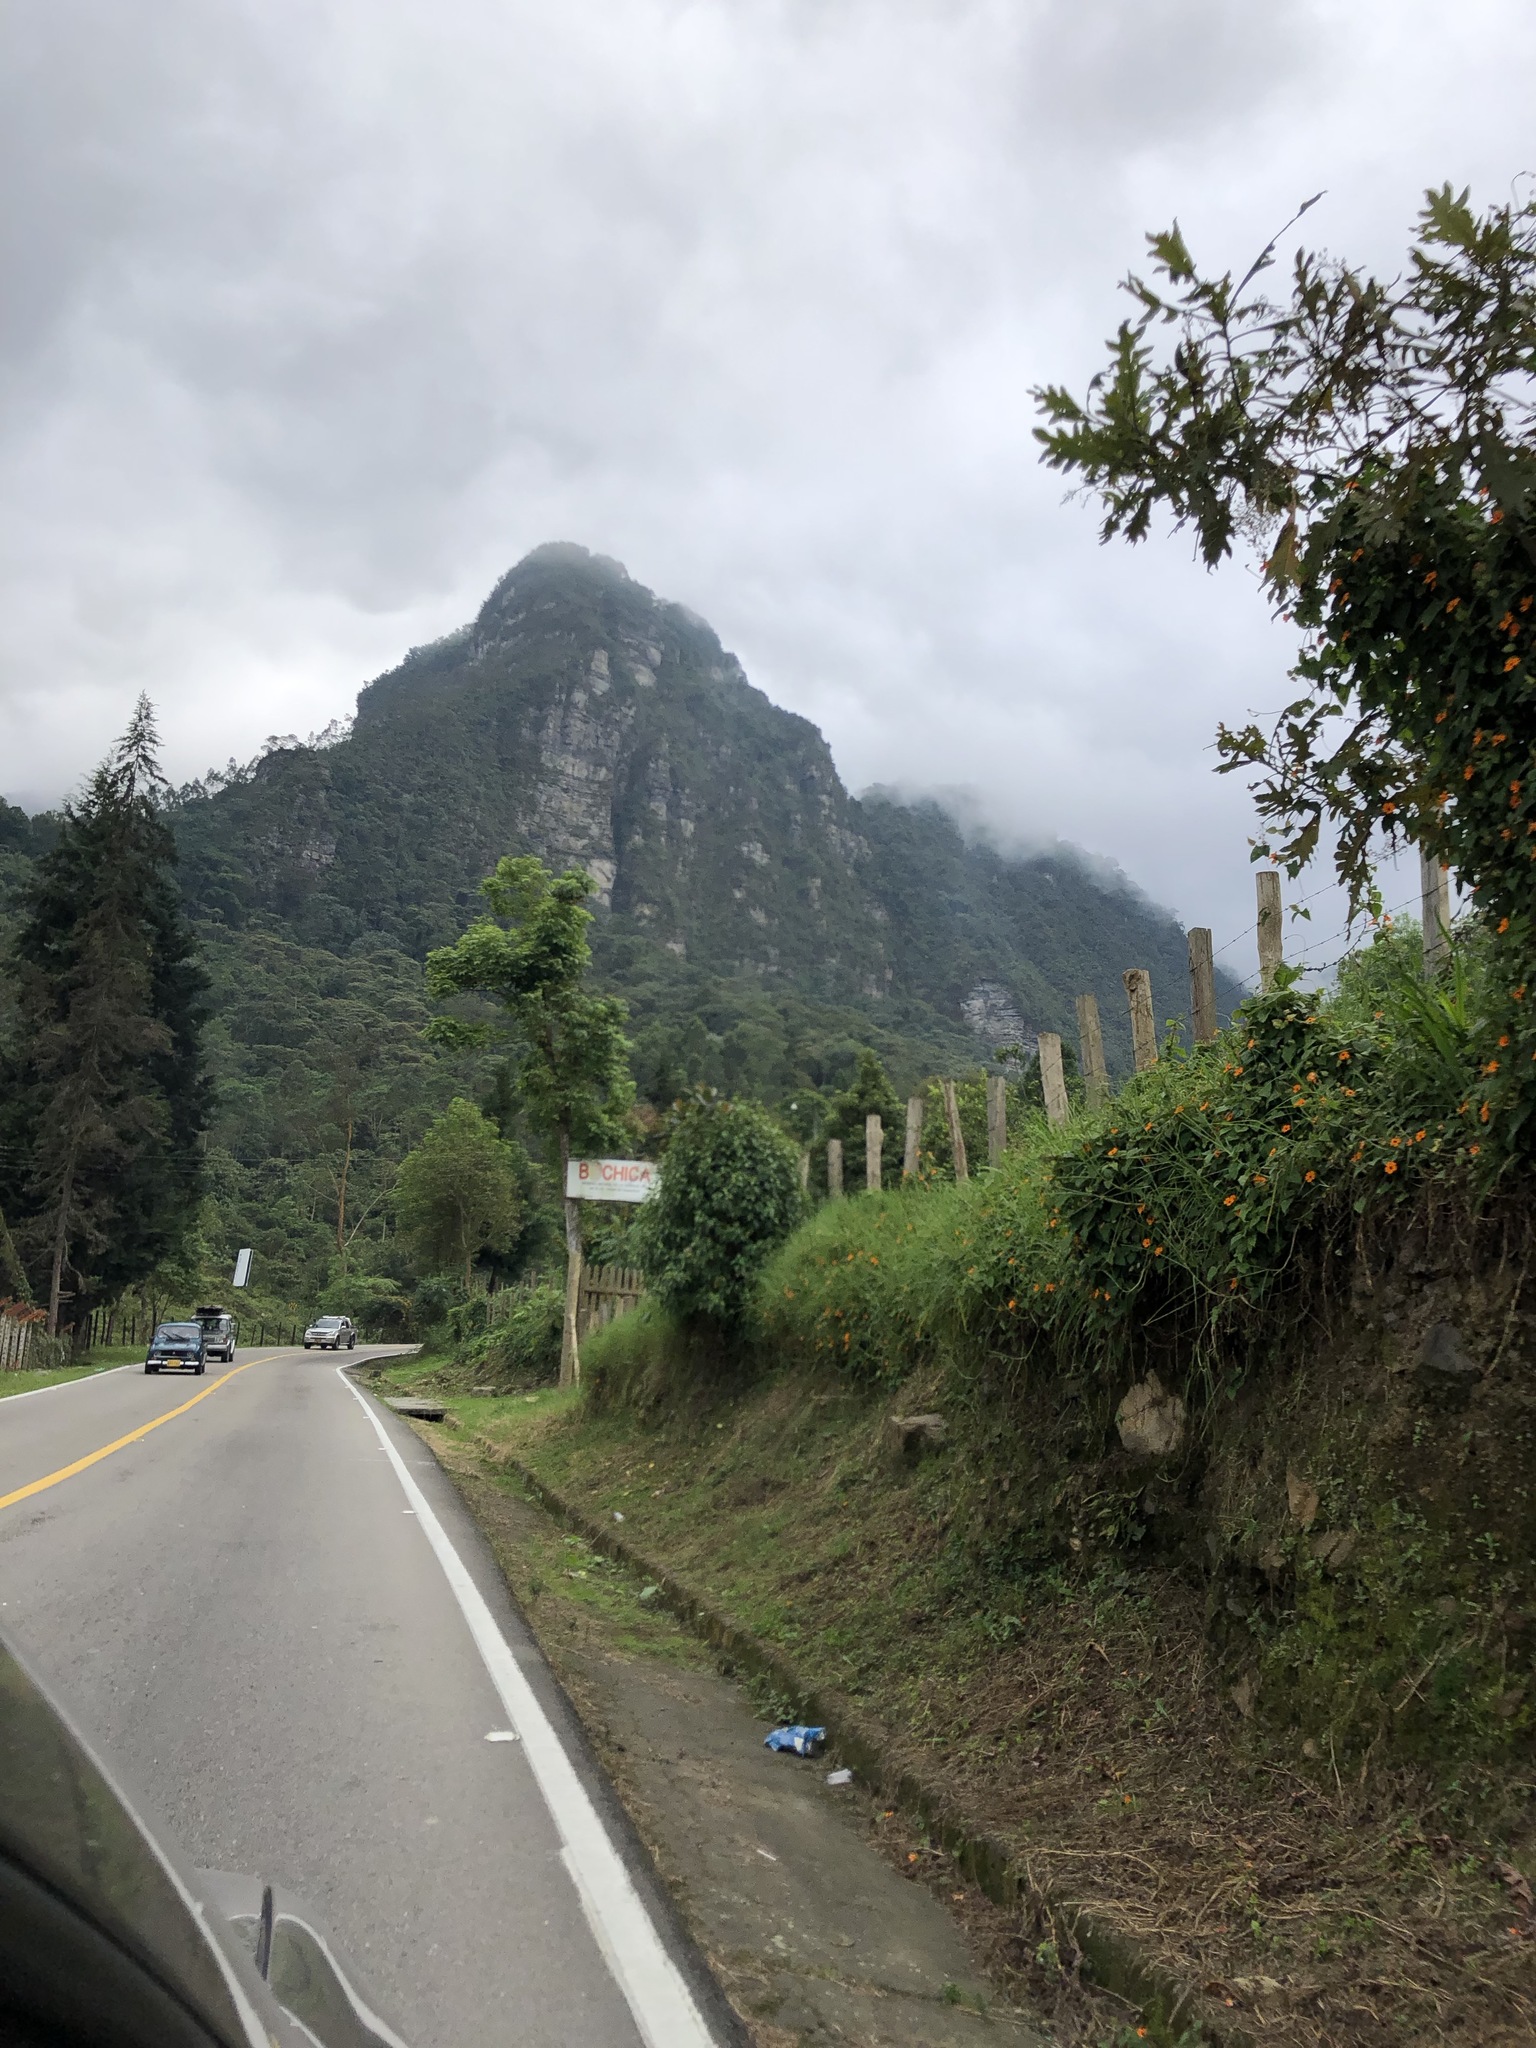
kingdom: Plantae
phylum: Tracheophyta
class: Magnoliopsida
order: Lamiales
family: Acanthaceae
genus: Thunbergia
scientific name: Thunbergia alata
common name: Blackeyed susan vine
